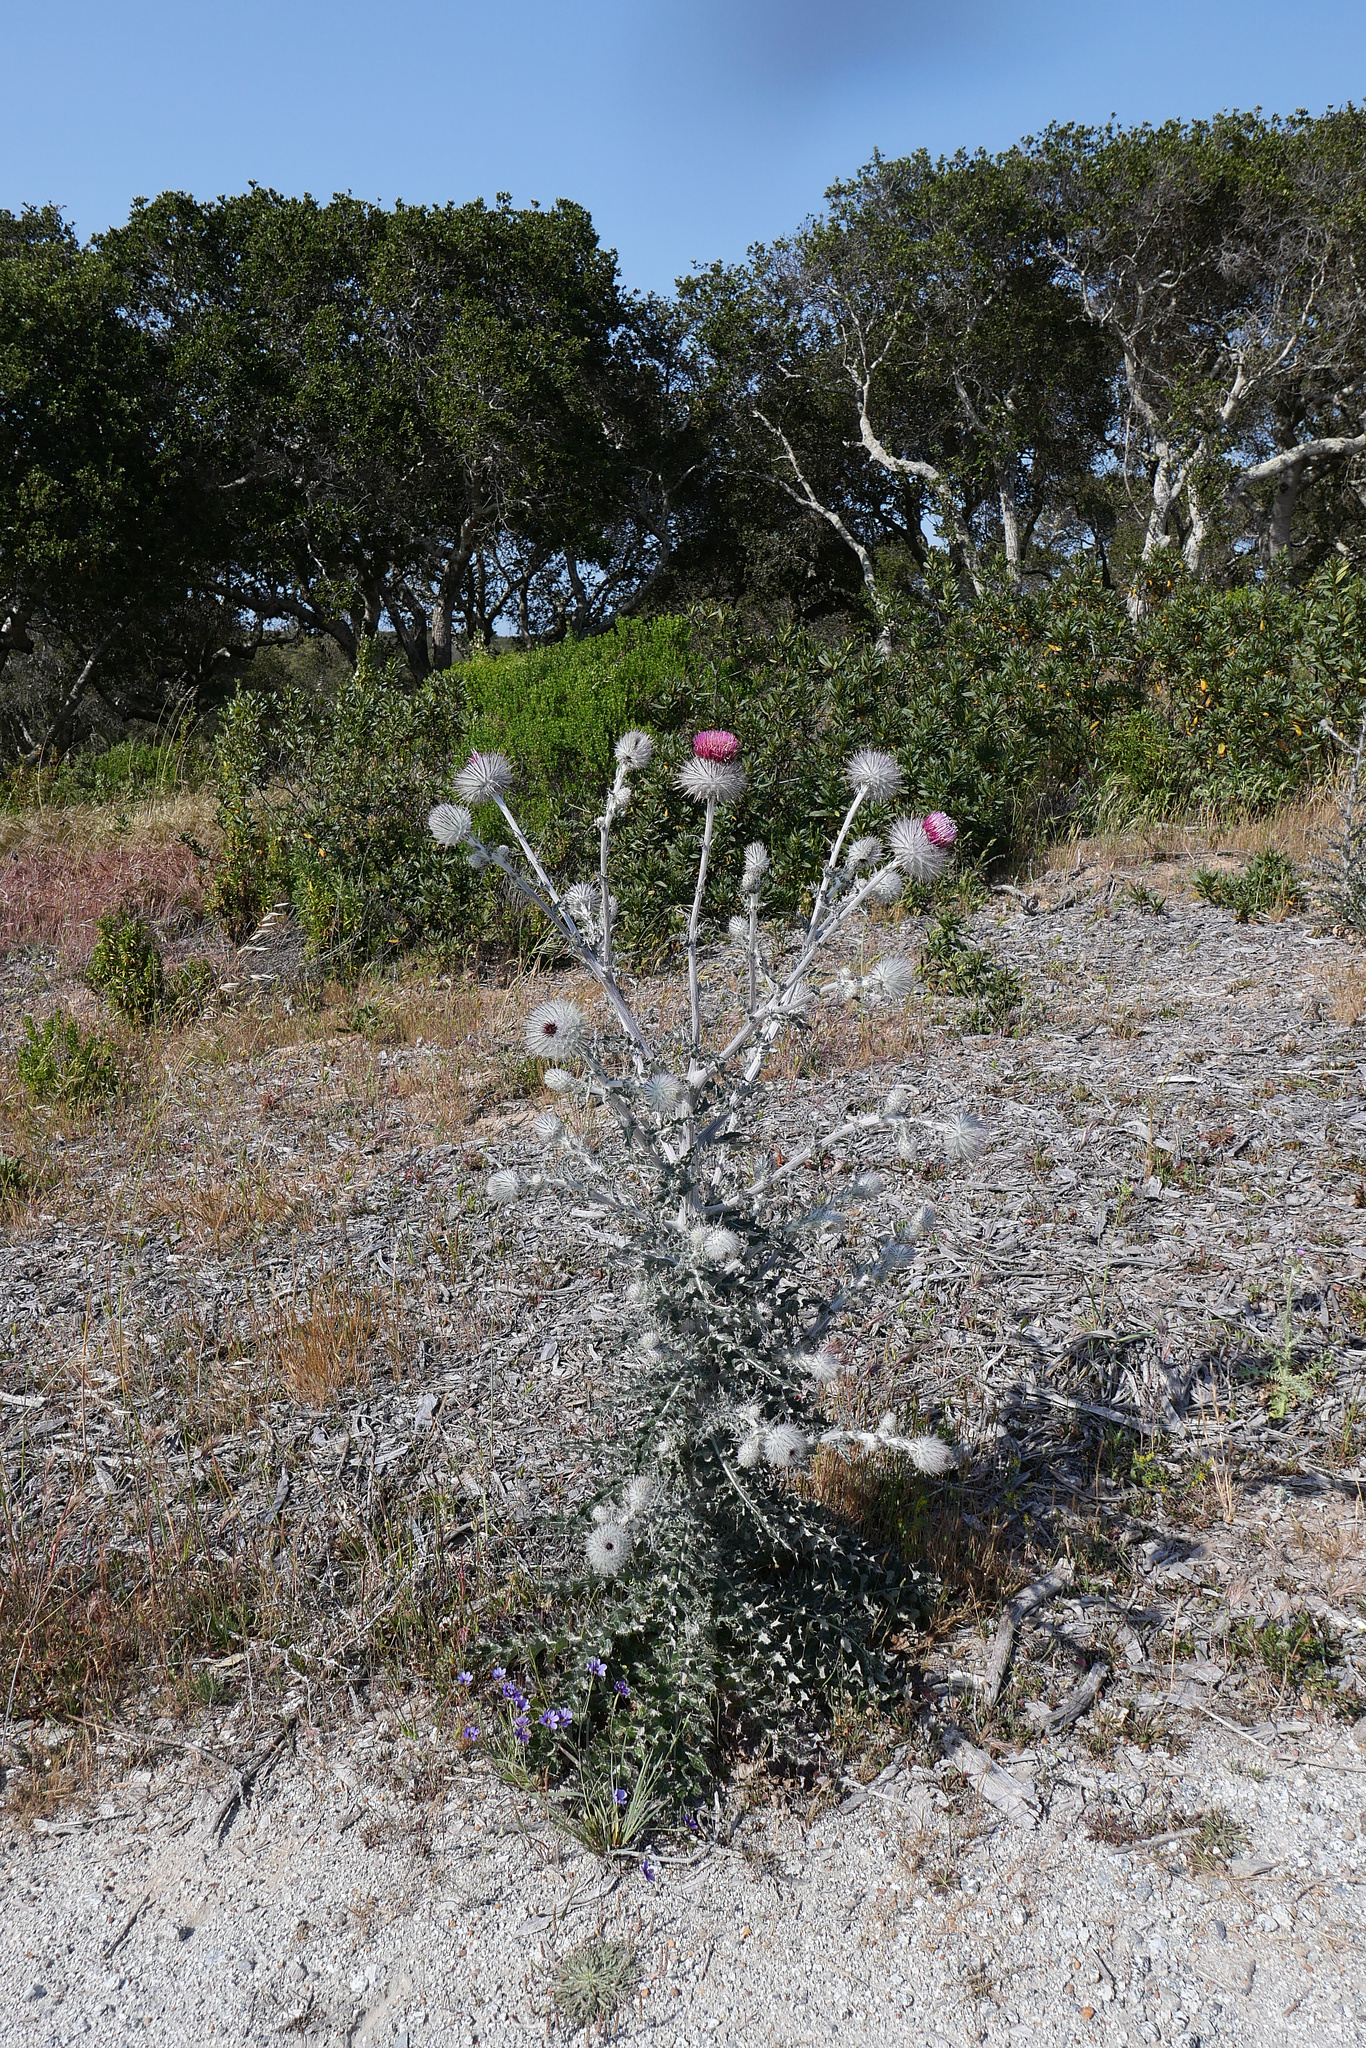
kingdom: Plantae
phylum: Tracheophyta
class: Magnoliopsida
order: Asterales
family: Asteraceae
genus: Cirsium
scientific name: Cirsium occidentale
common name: Western thistle
